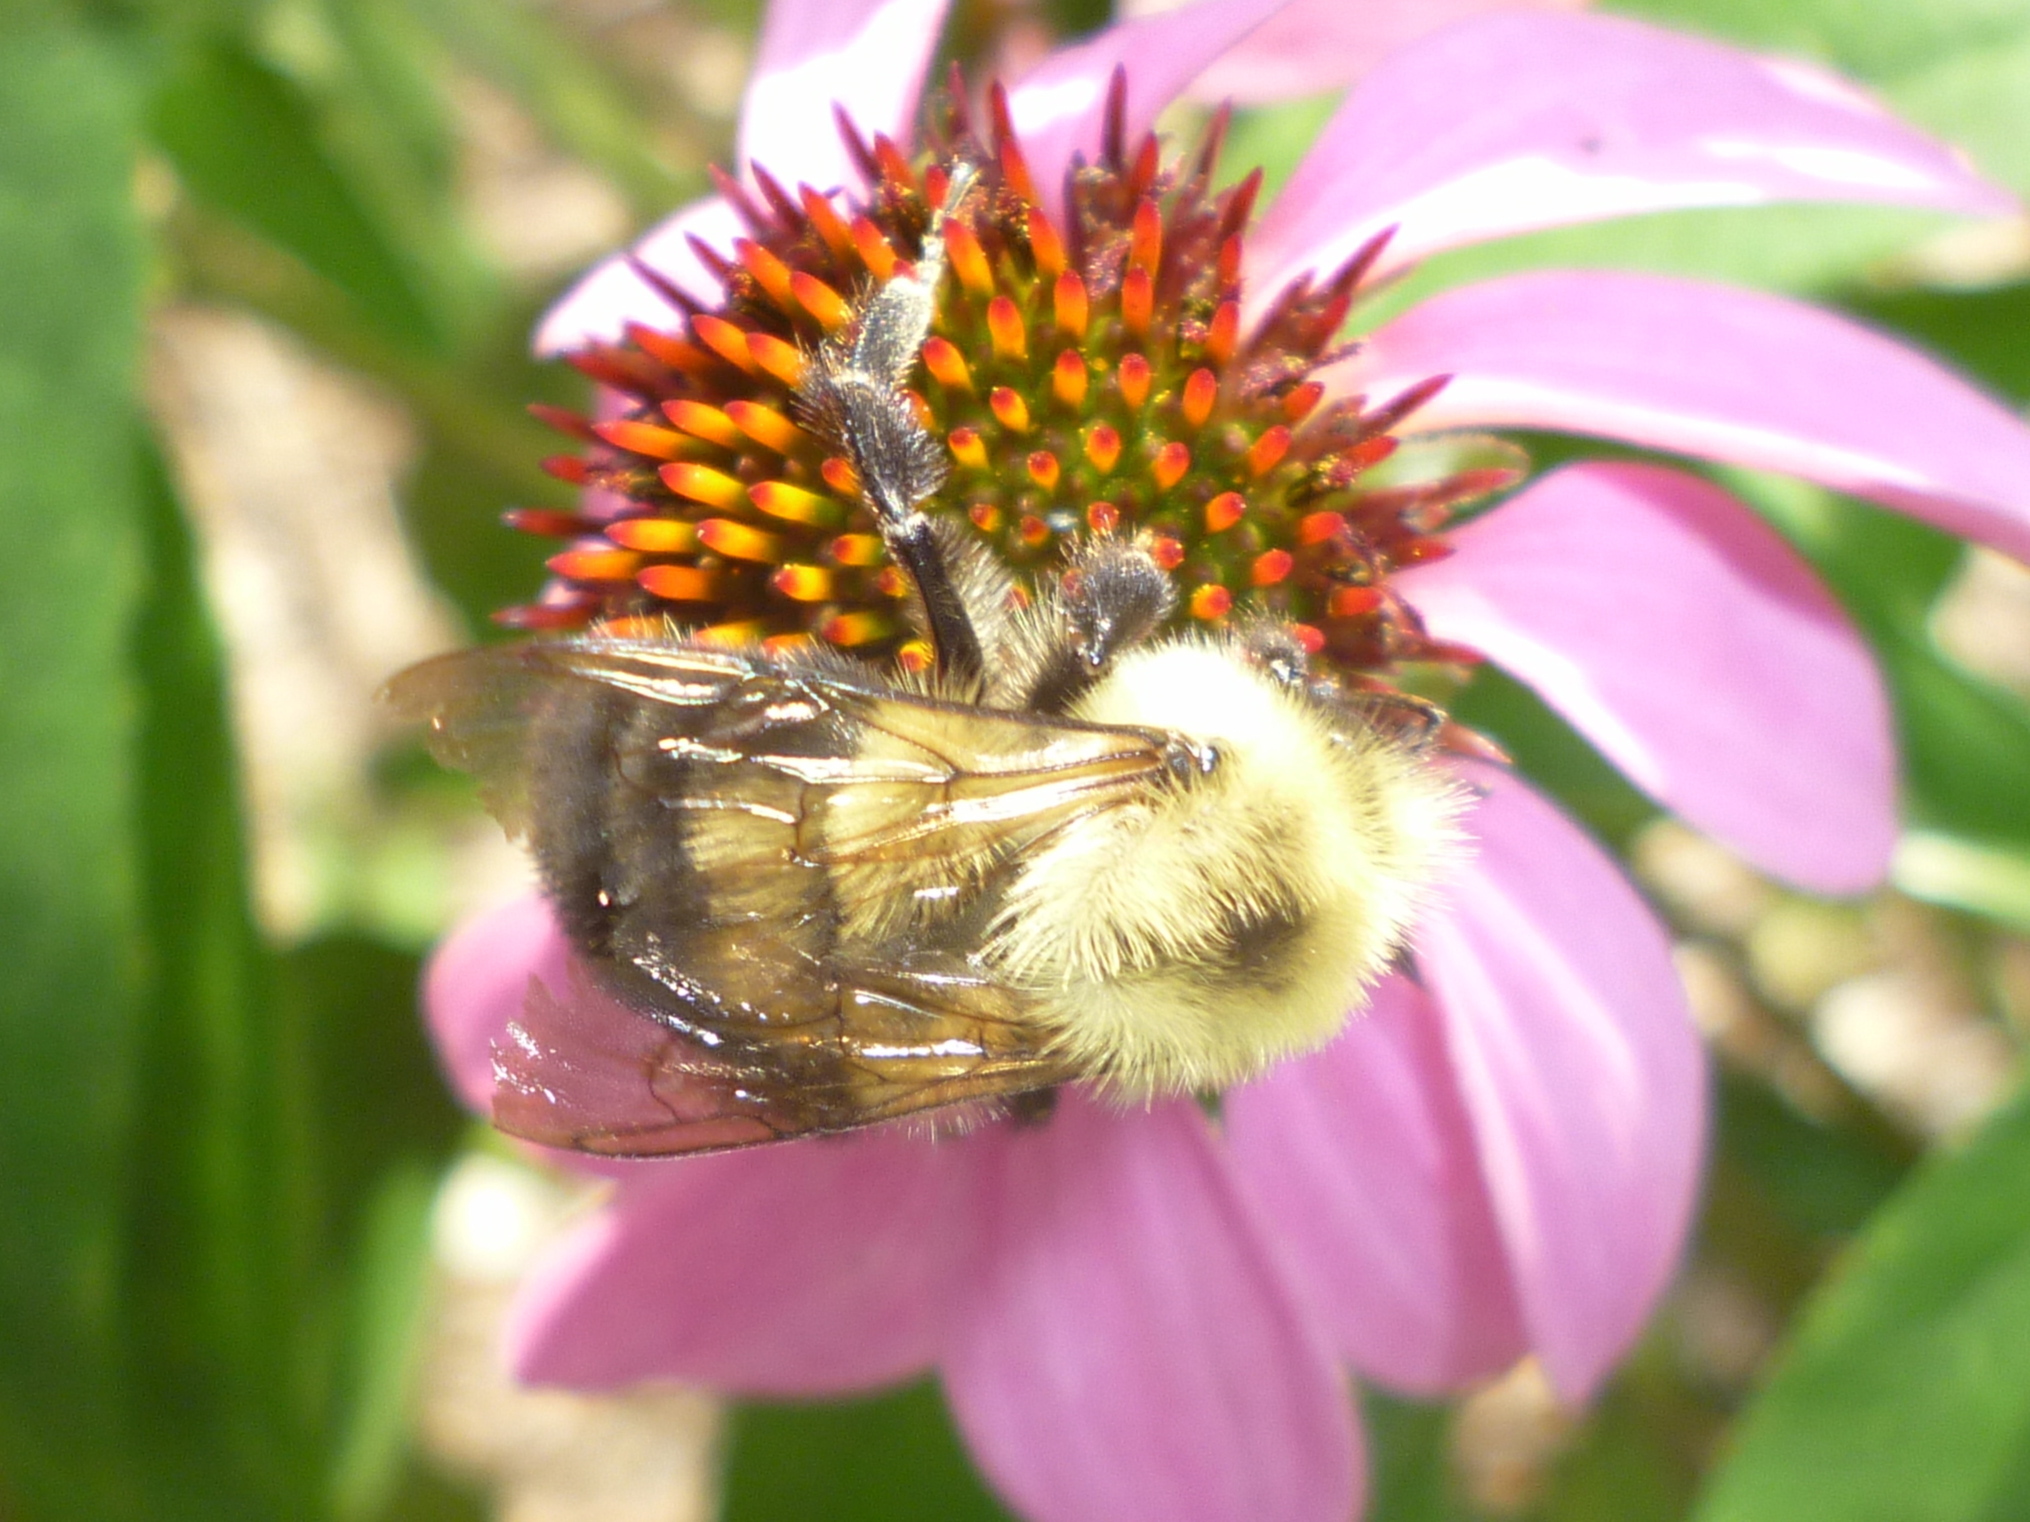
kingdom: Animalia
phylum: Arthropoda
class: Insecta
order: Hymenoptera
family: Apidae
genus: Bombus
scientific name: Bombus bimaculatus
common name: Two-spotted bumble bee
